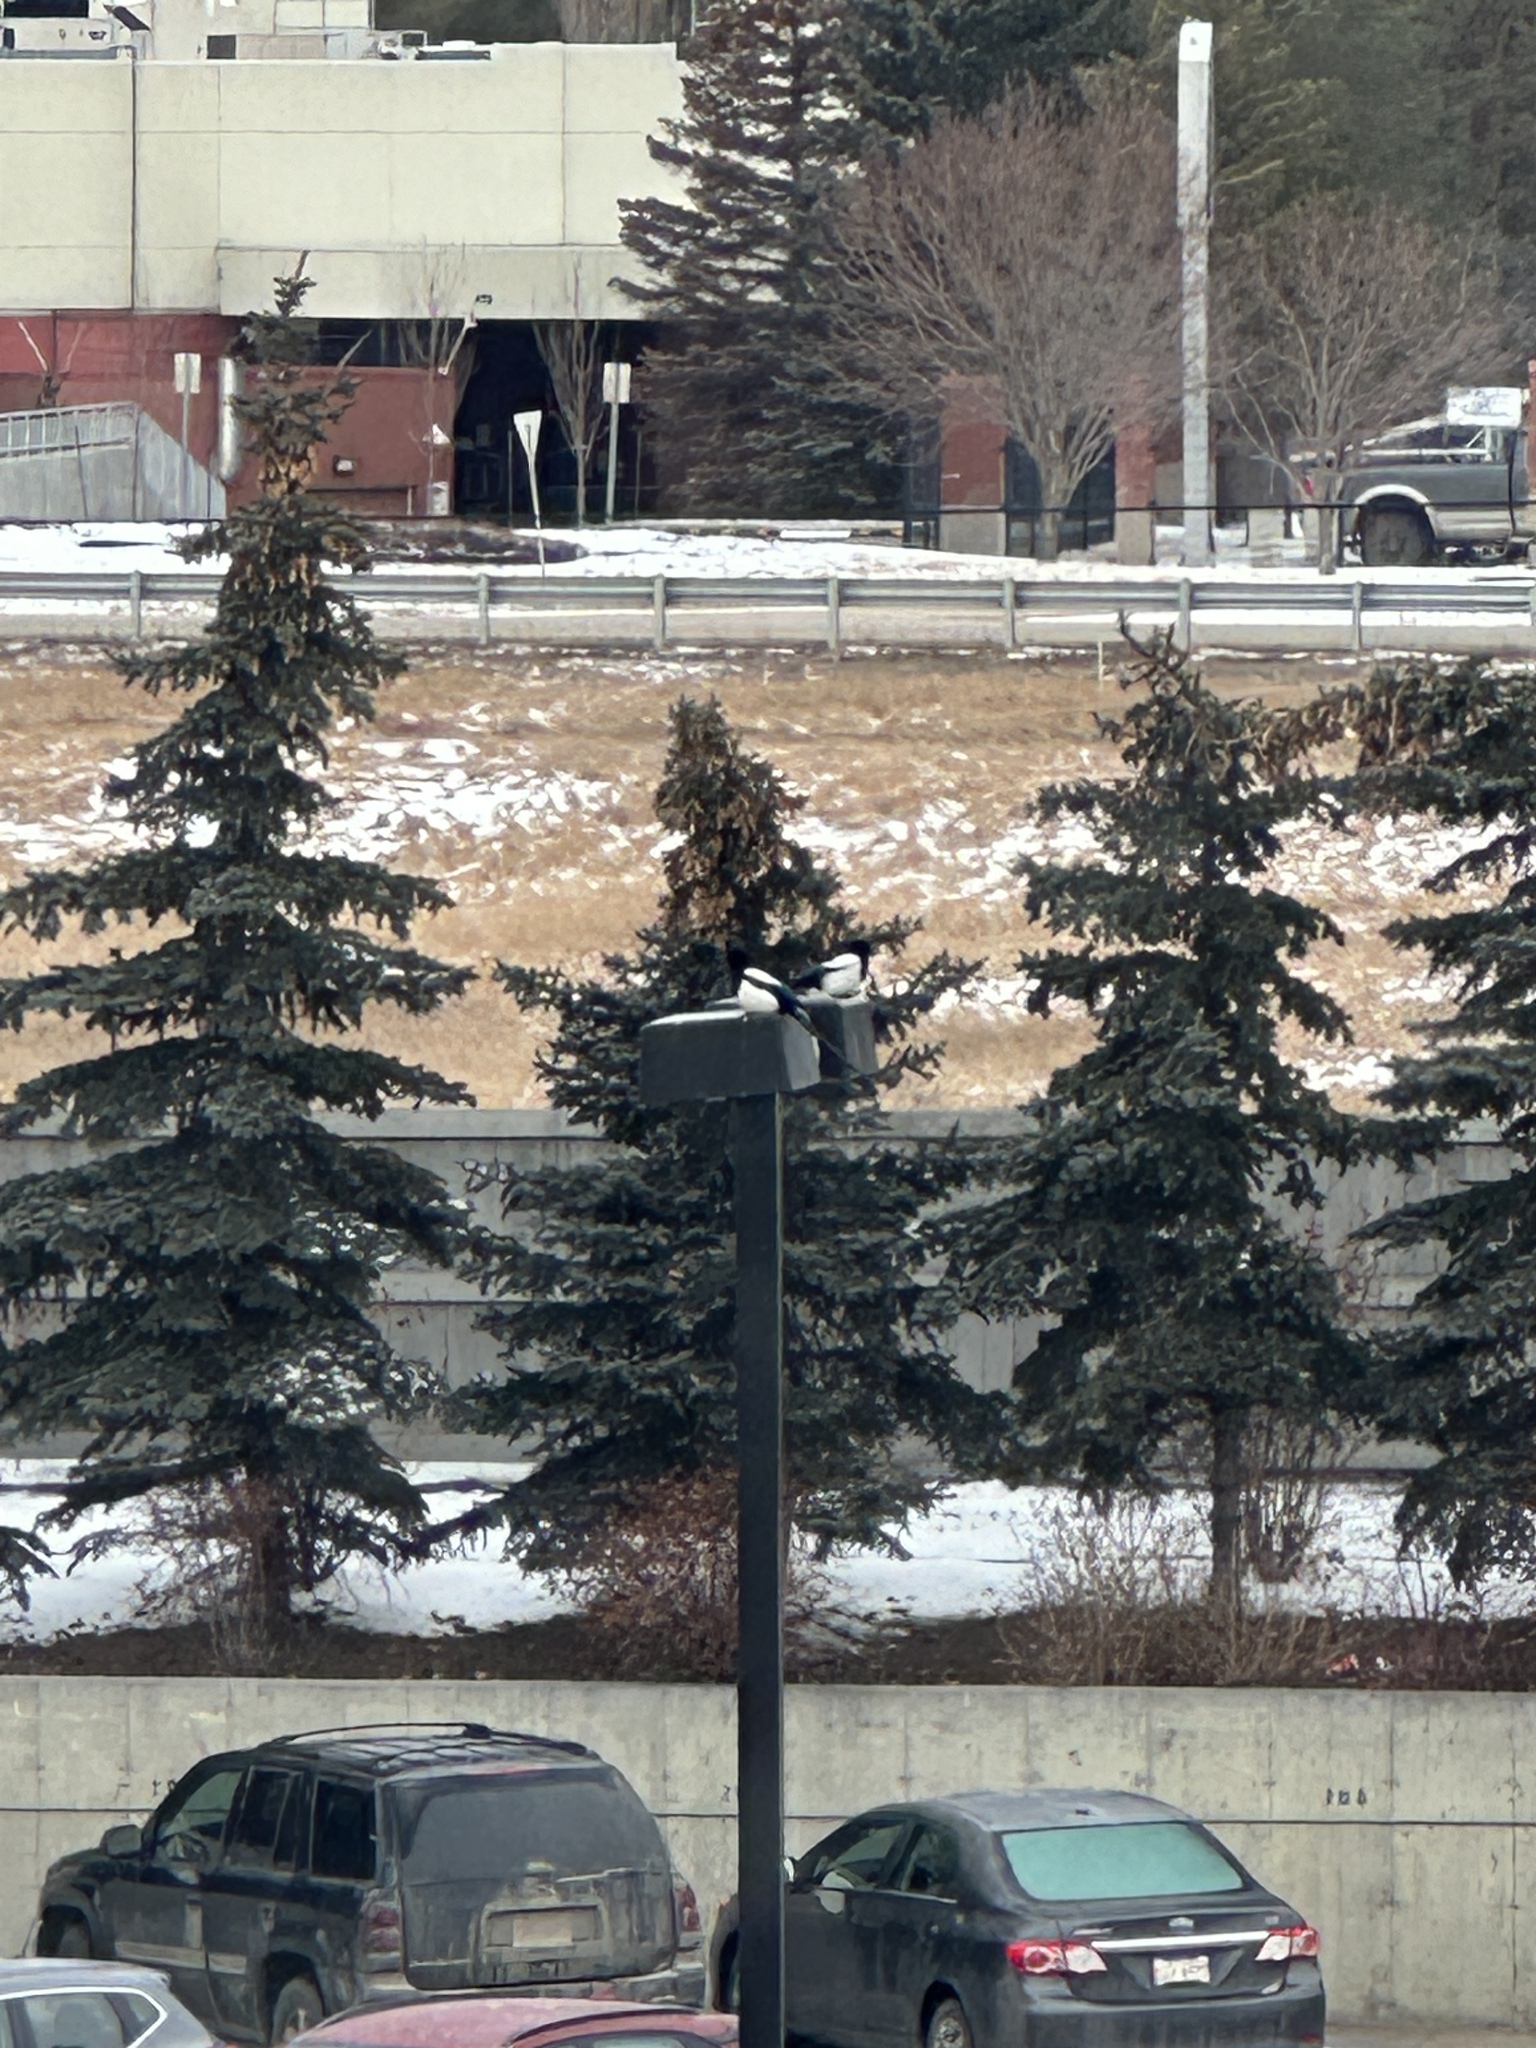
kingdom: Animalia
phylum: Chordata
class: Aves
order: Passeriformes
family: Corvidae
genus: Pica
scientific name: Pica hudsonia
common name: Black-billed magpie
